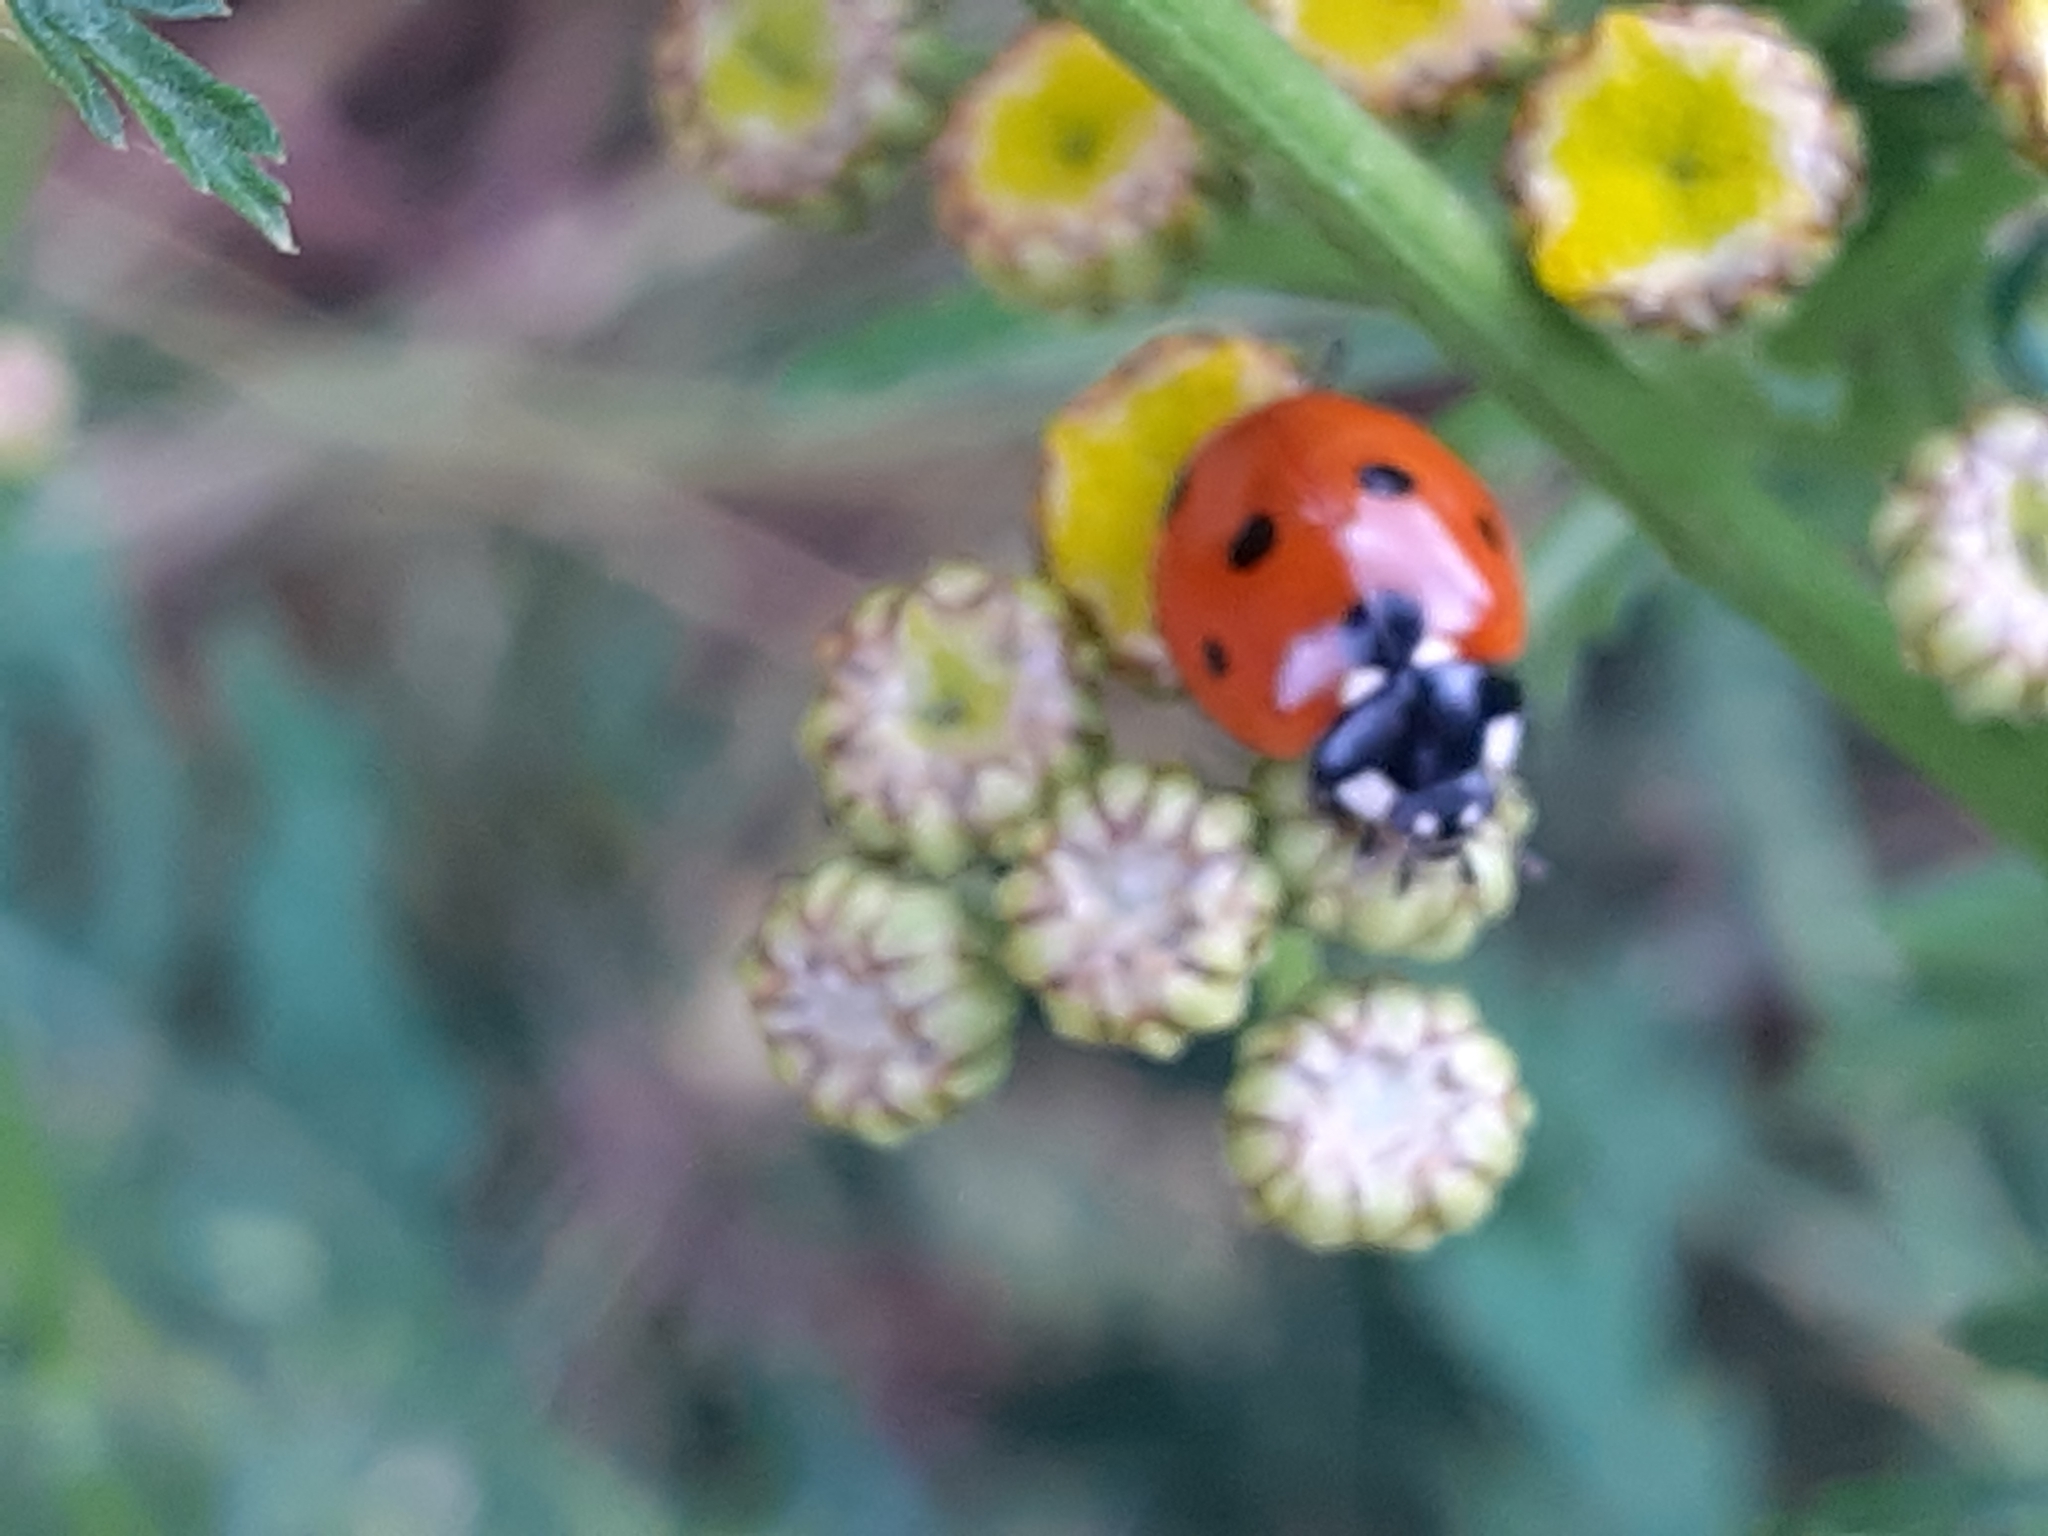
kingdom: Animalia
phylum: Arthropoda
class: Insecta
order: Coleoptera
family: Coccinellidae
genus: Coccinella
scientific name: Coccinella septempunctata
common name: Sevenspotted lady beetle
